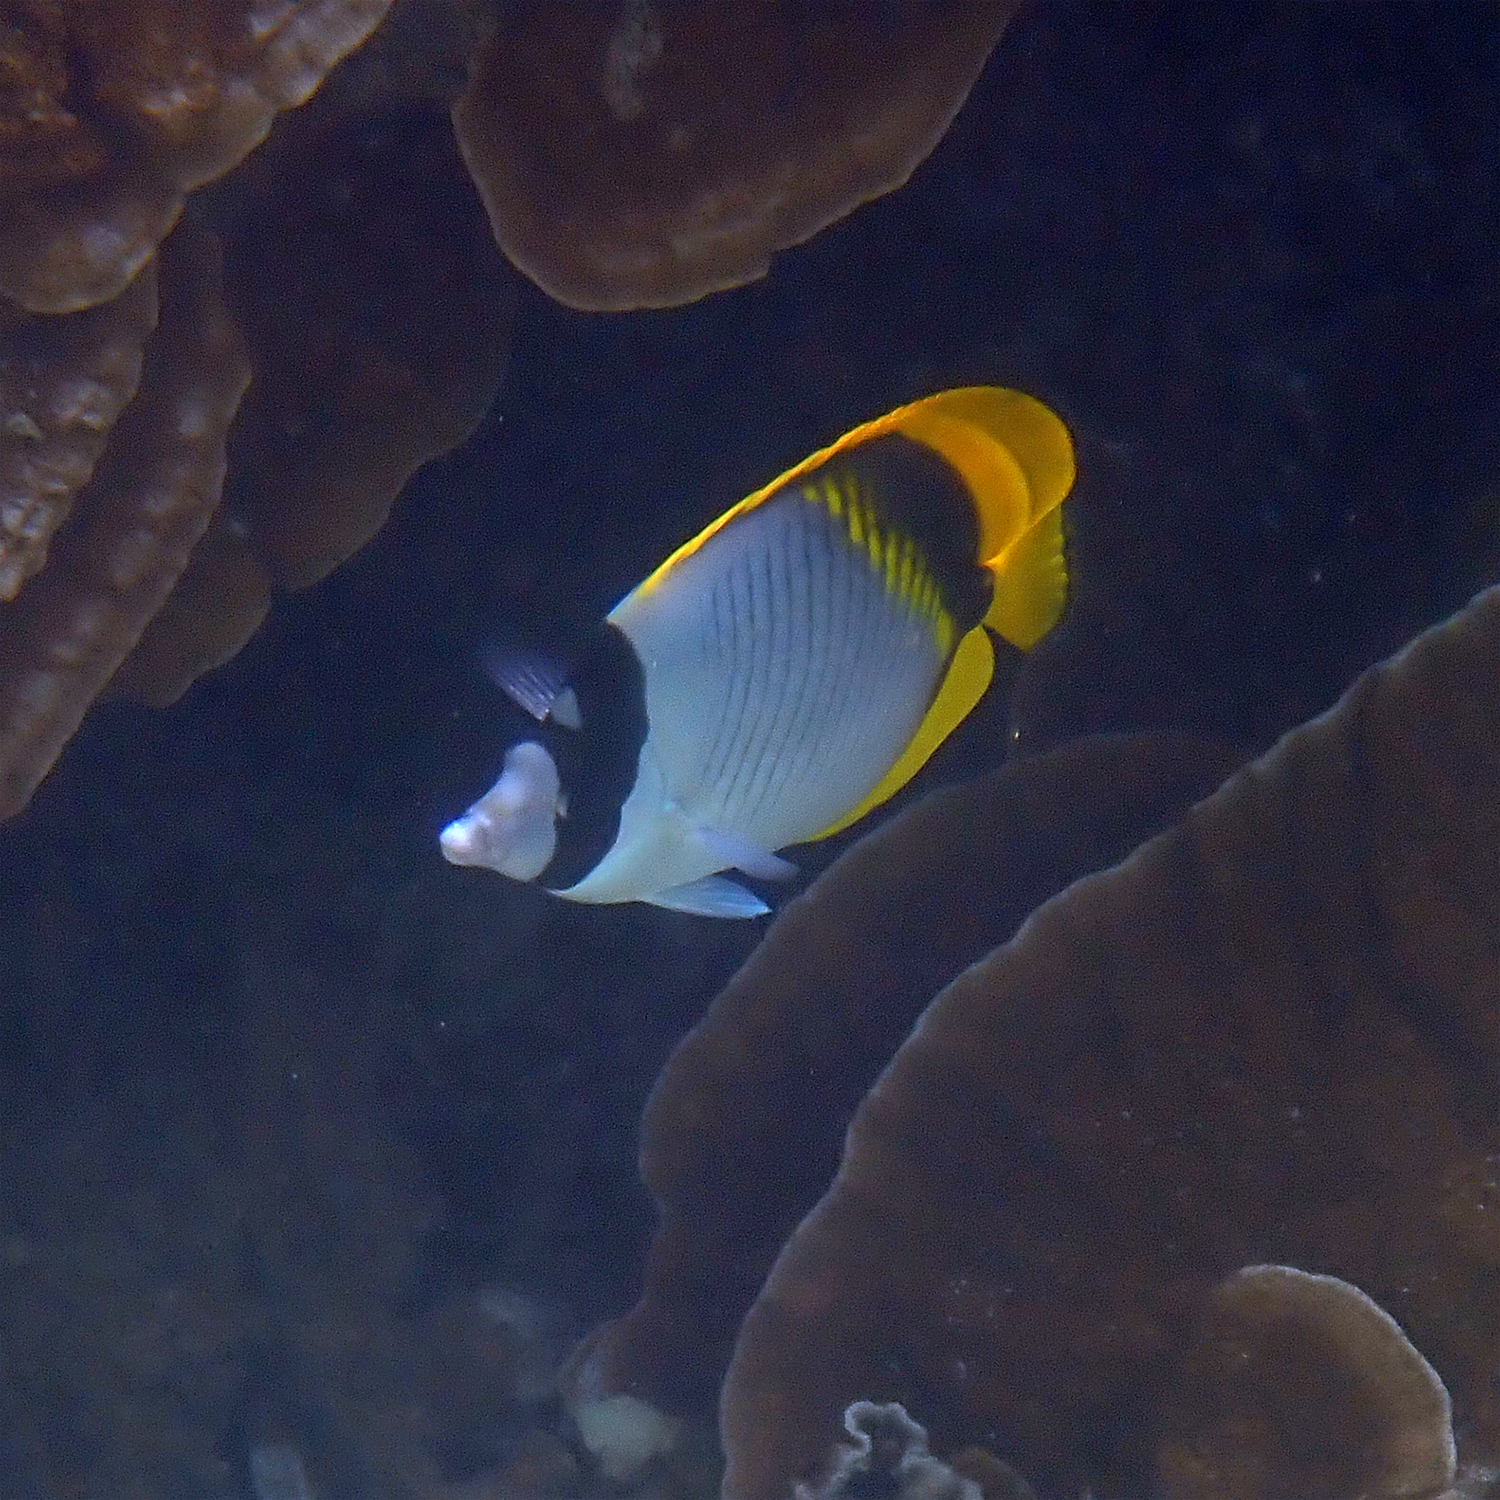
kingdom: Animalia
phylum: Chordata
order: Perciformes
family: Chaetodontidae
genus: Chaetodon
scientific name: Chaetodon lineolatus
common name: Lined butterflyfish
